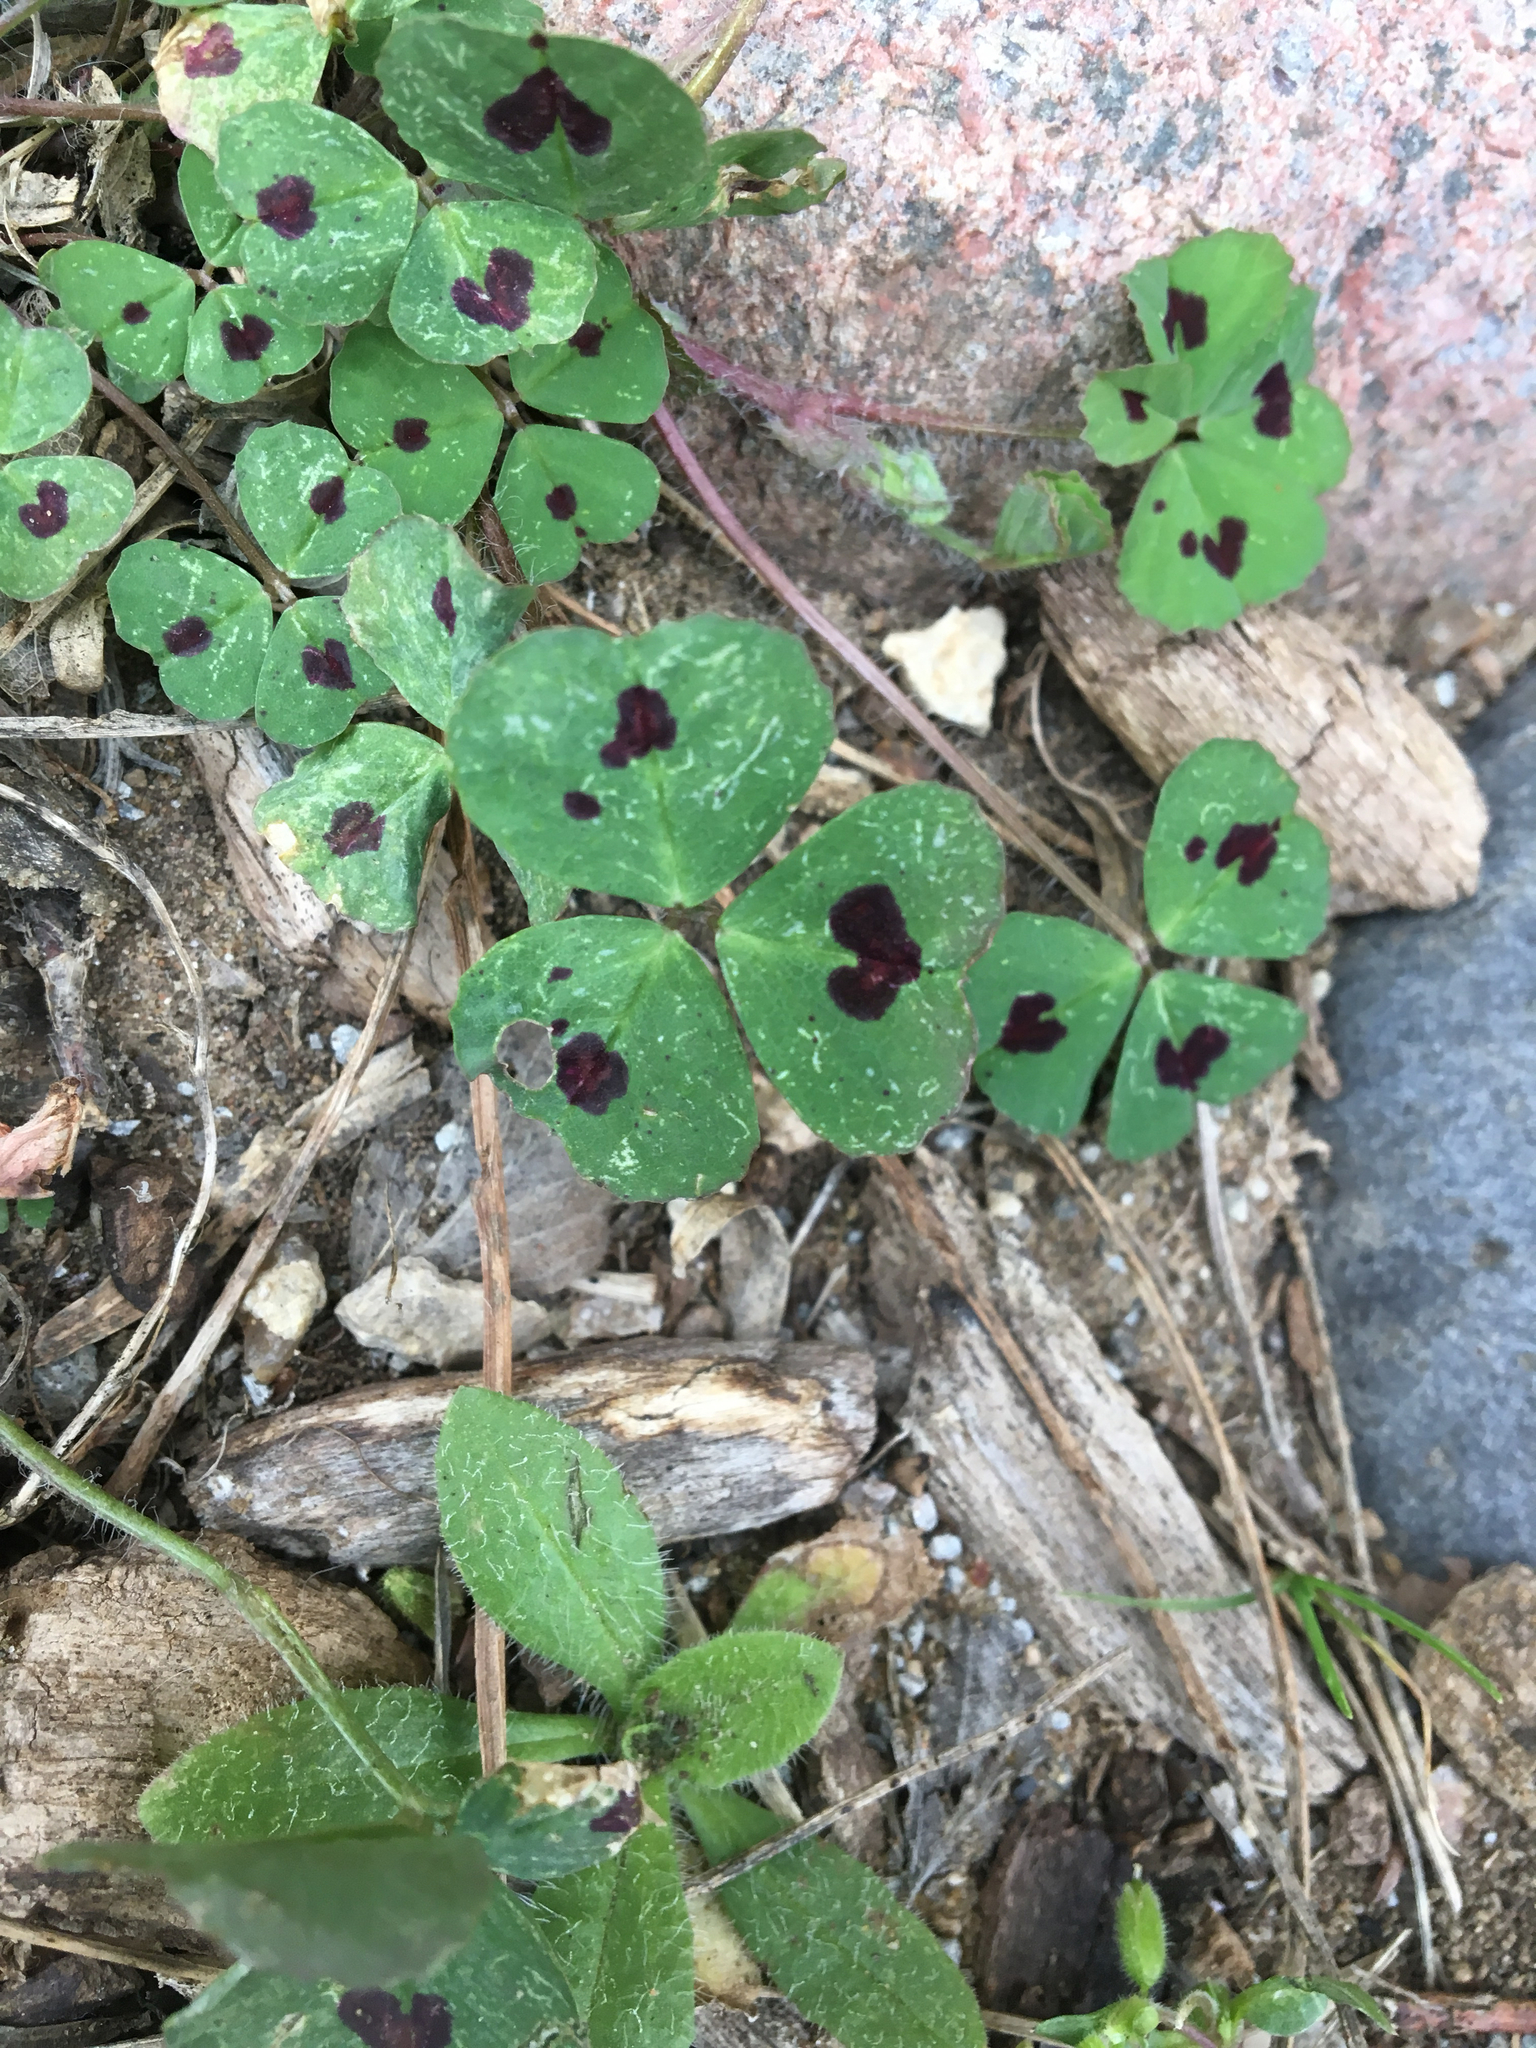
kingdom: Plantae
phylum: Tracheophyta
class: Magnoliopsida
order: Fabales
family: Fabaceae
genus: Medicago
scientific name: Medicago arabica
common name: Spotted medick
